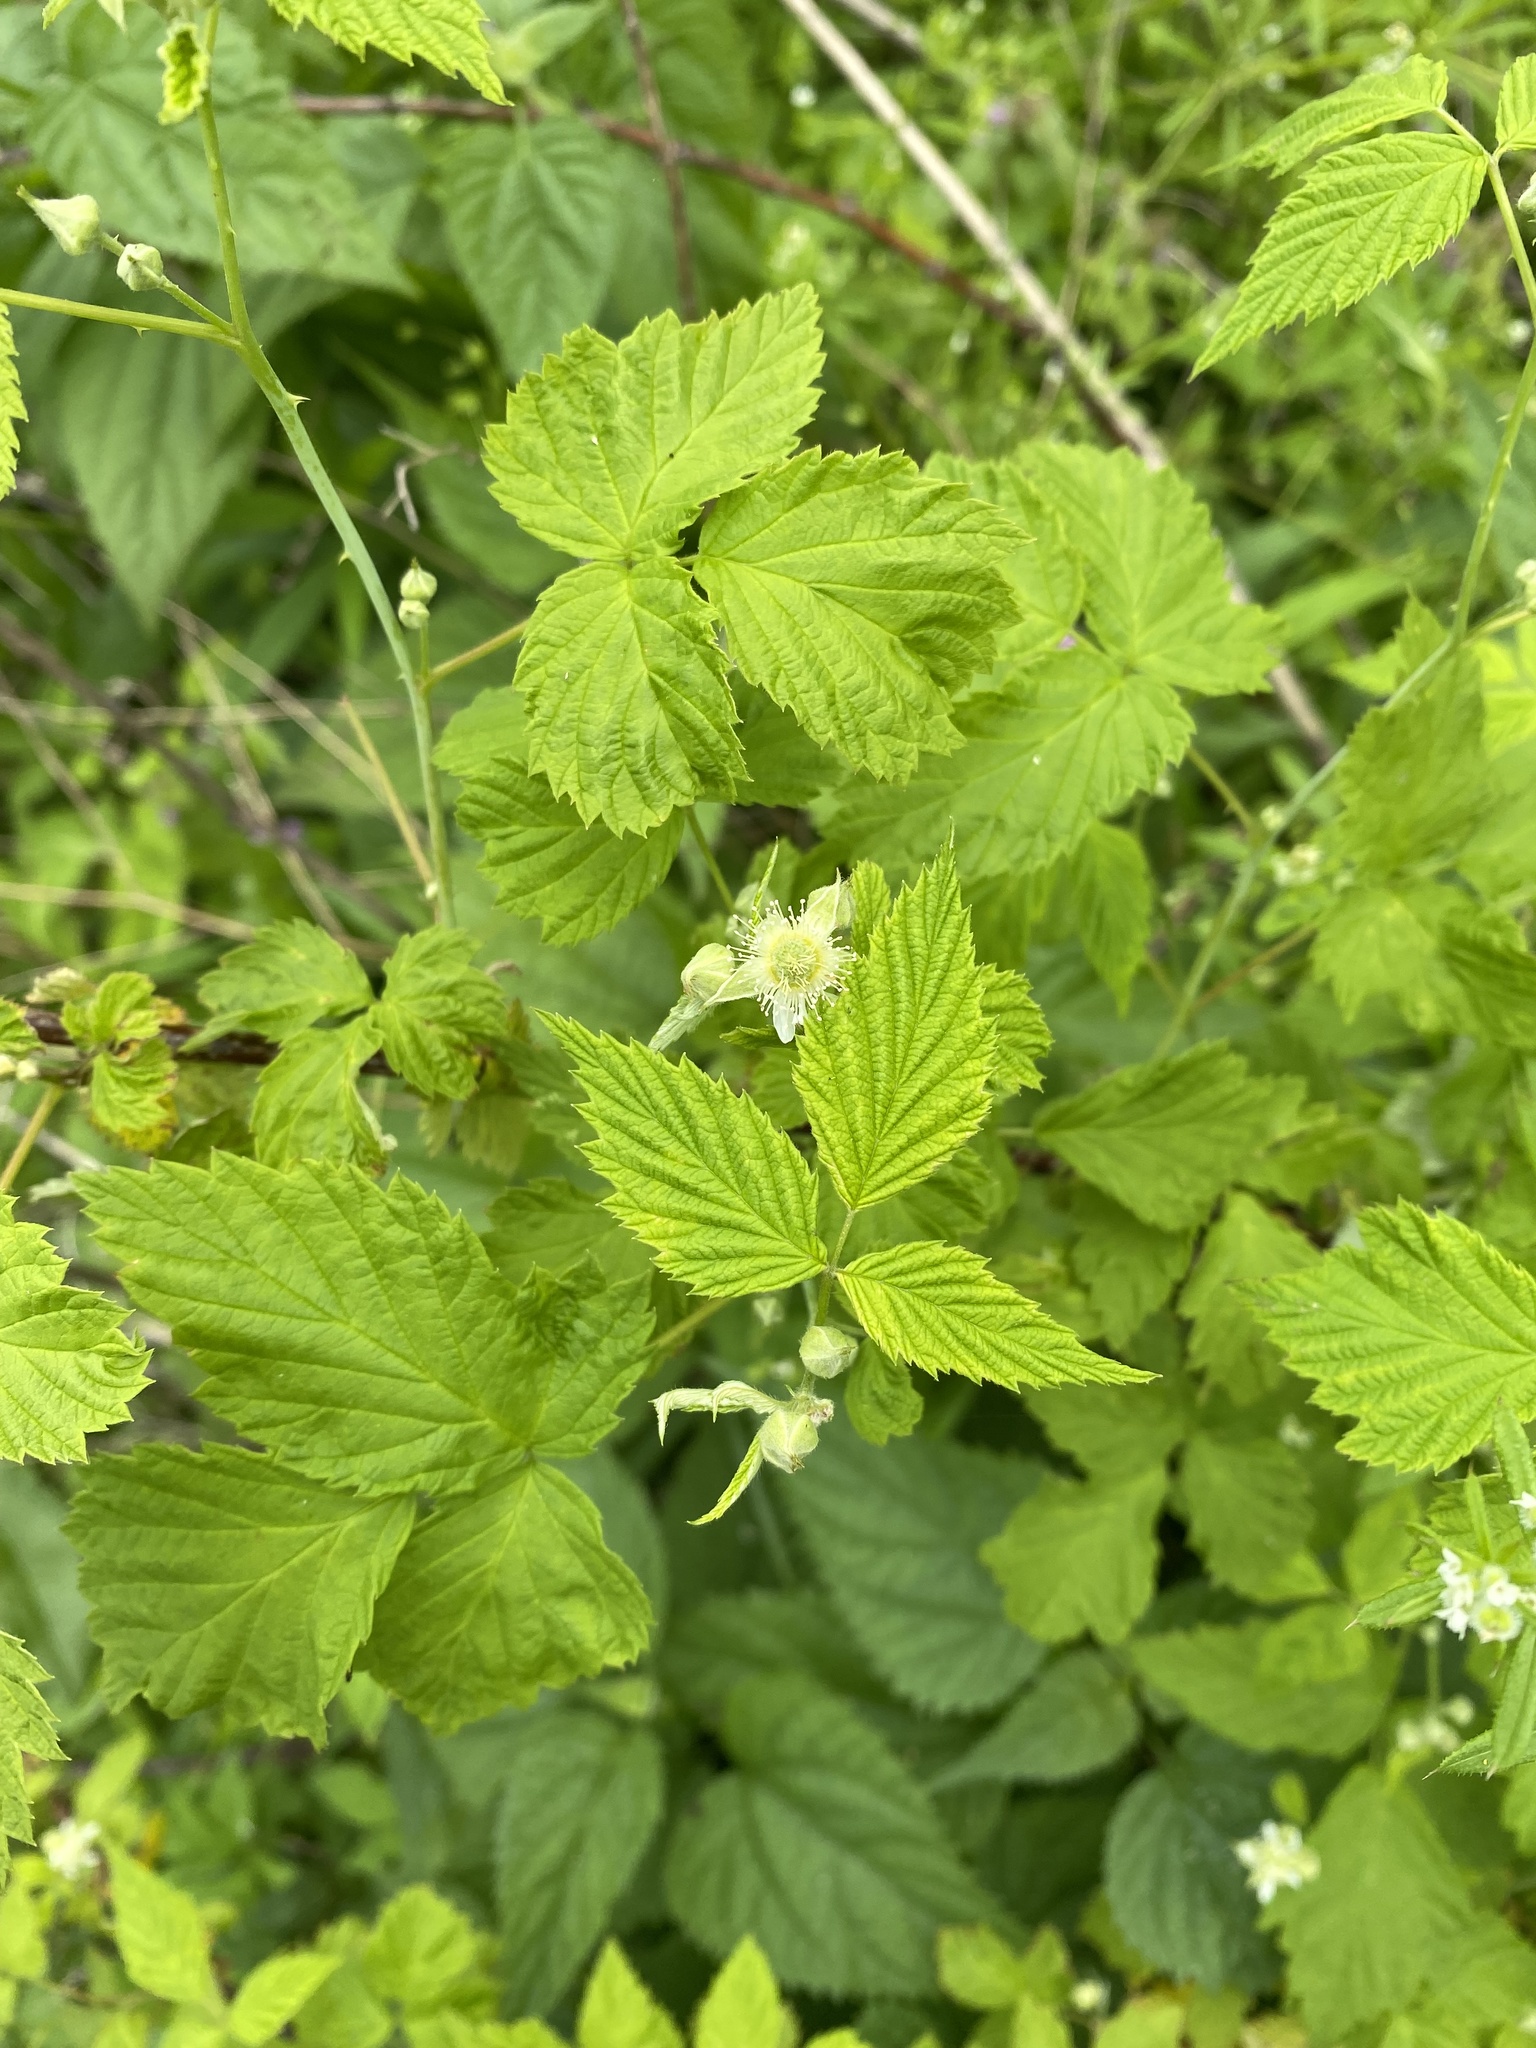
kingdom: Plantae
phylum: Tracheophyta
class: Magnoliopsida
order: Rosales
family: Rosaceae
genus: Rubus
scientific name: Rubus occidentalis
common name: Black raspberry
